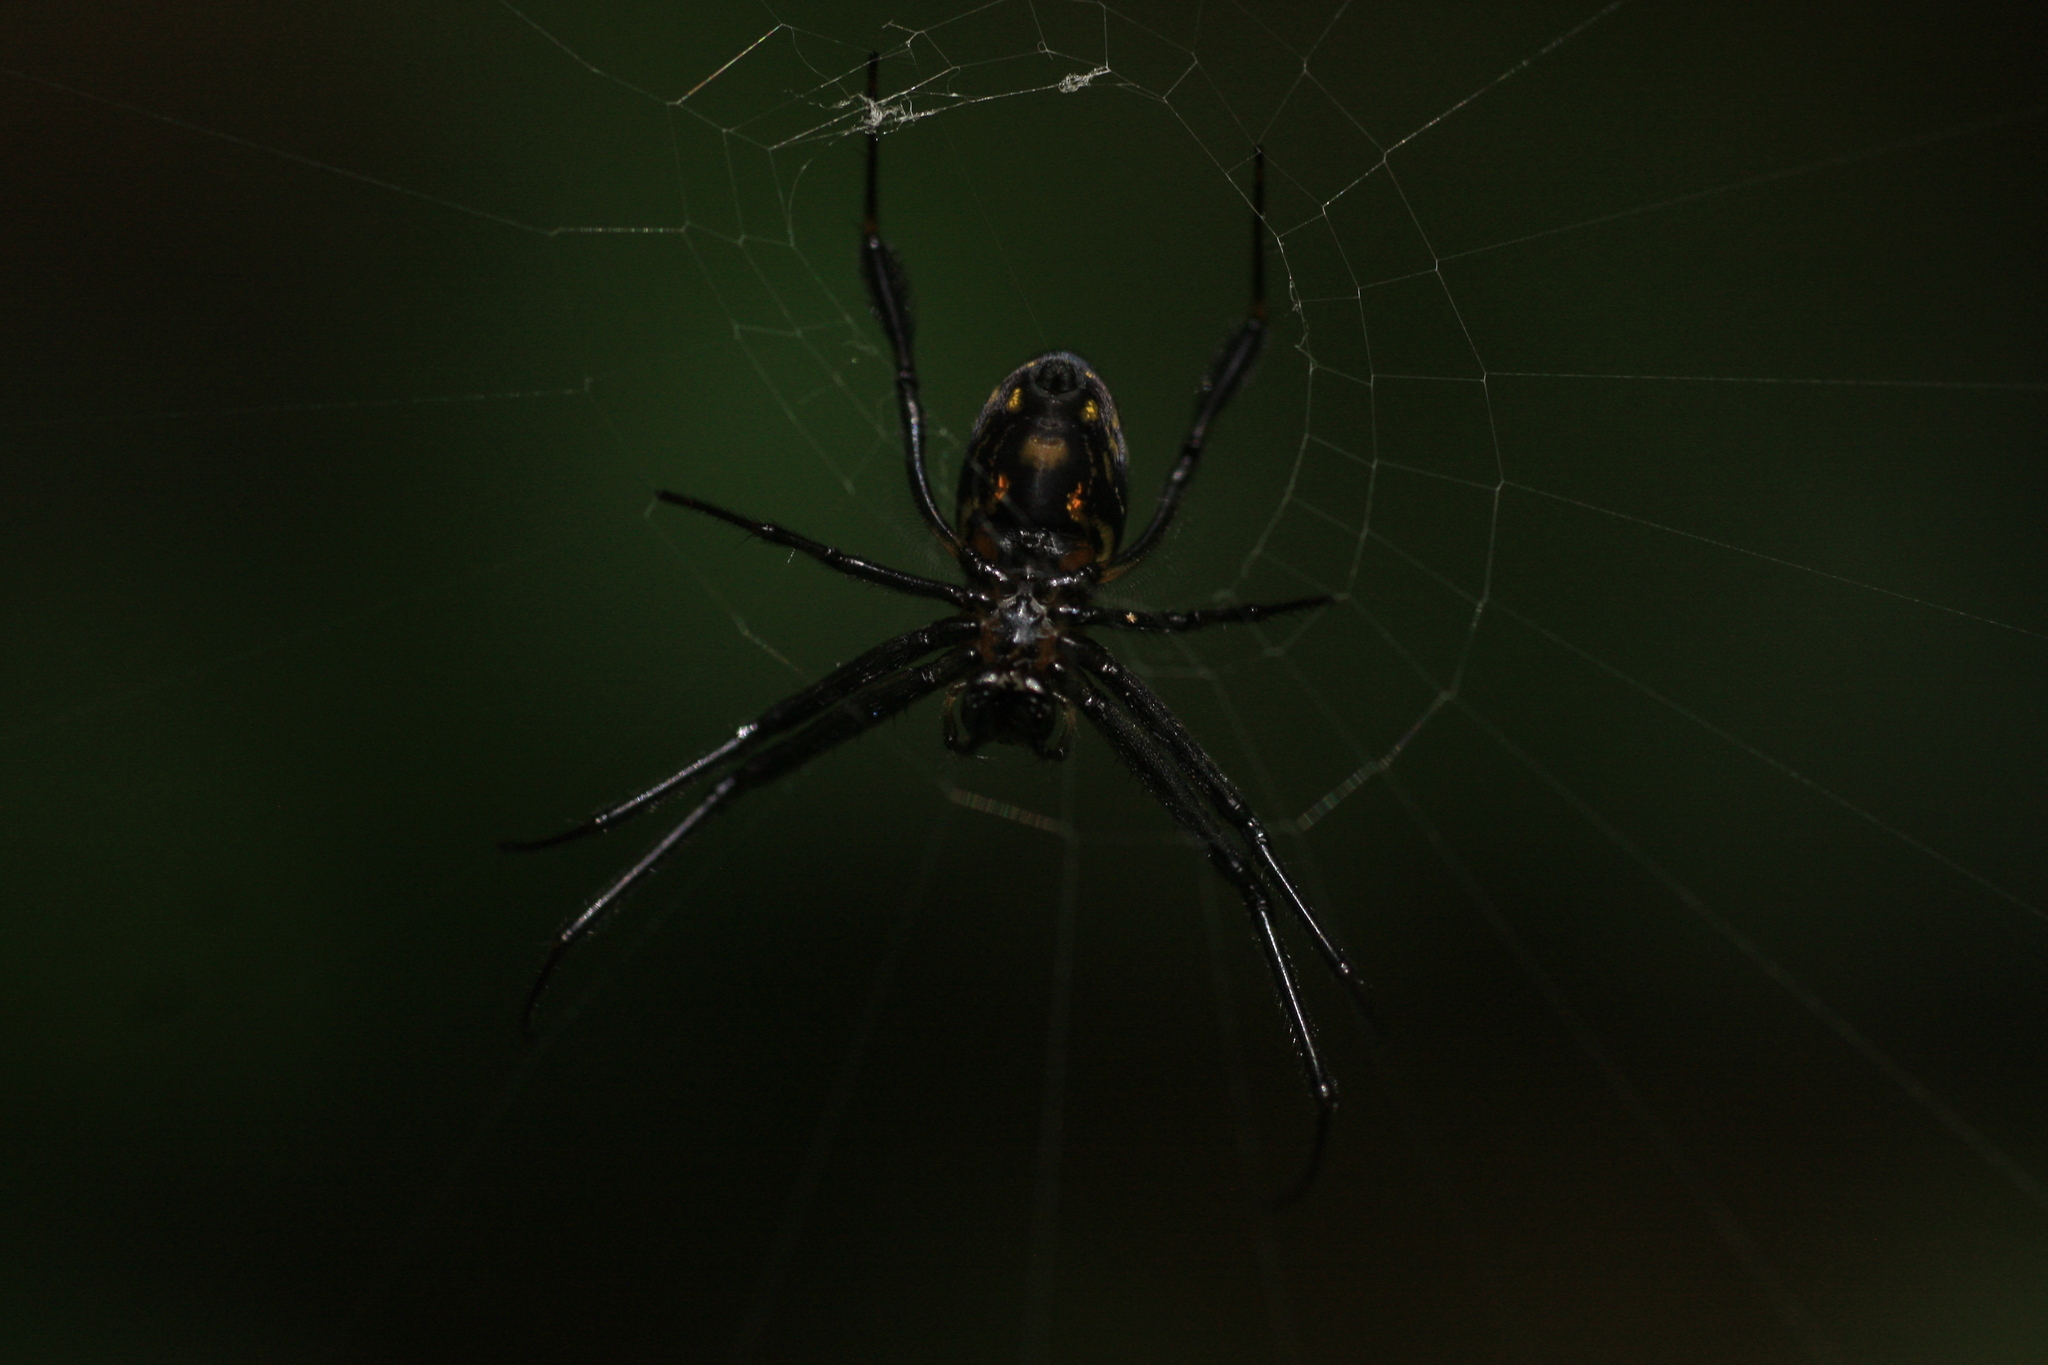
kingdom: Animalia
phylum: Arthropoda
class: Arachnida
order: Araneae
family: Tetragnathidae
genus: Leucauge
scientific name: Leucauge fastigata
